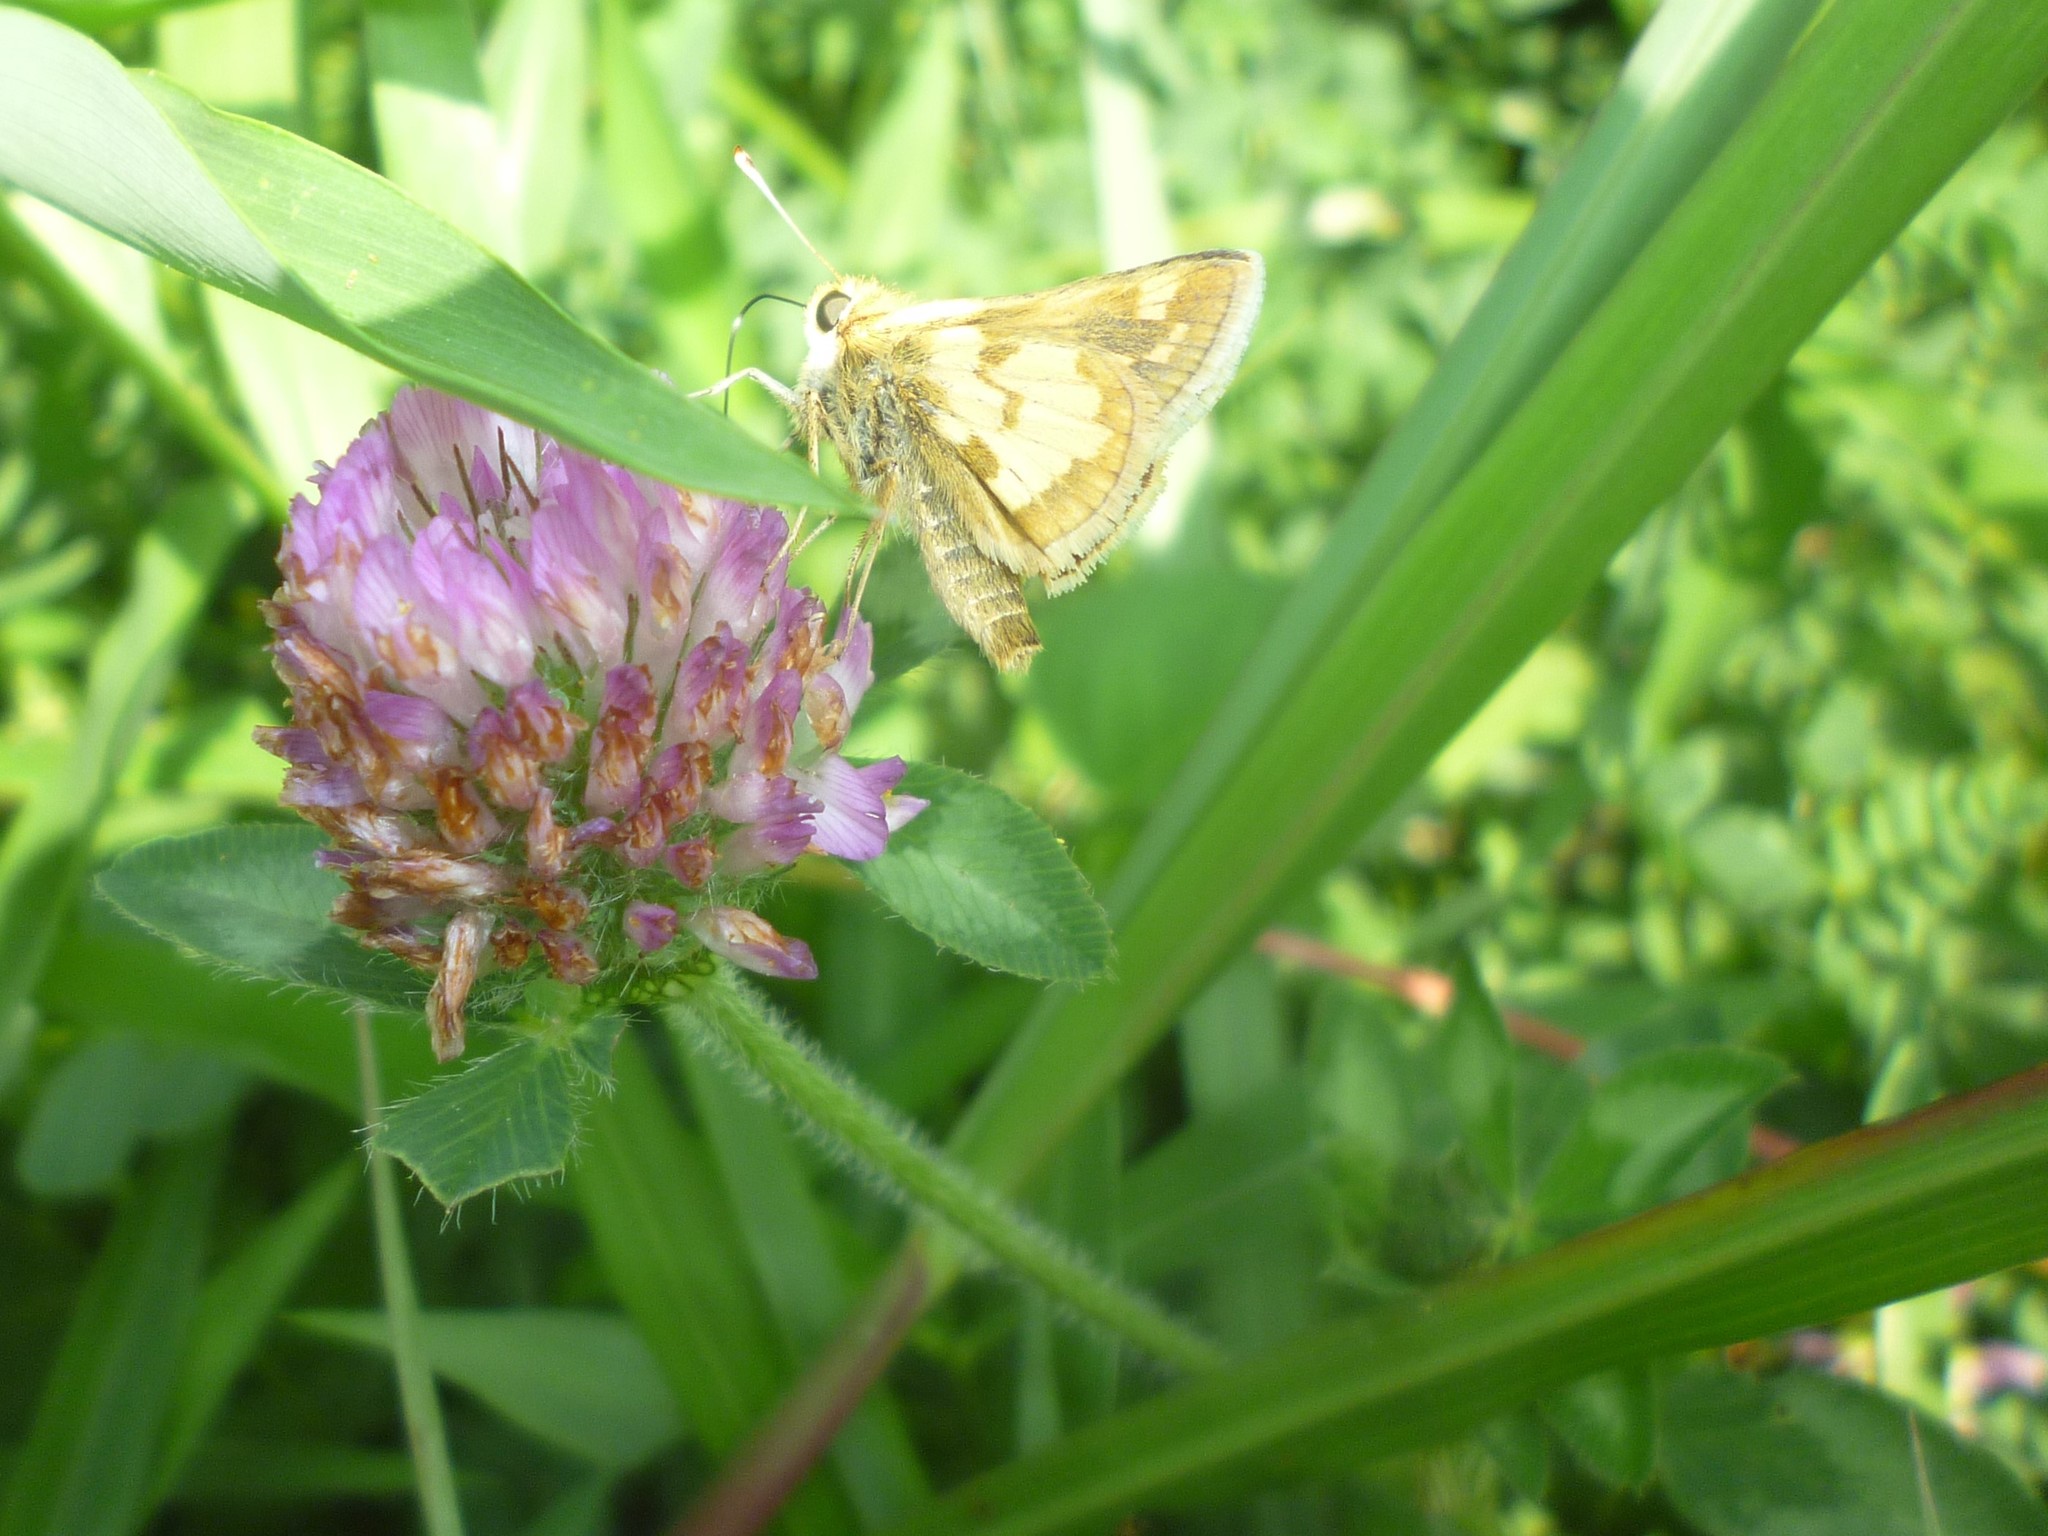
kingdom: Plantae
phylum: Tracheophyta
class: Magnoliopsida
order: Fabales
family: Fabaceae
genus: Trifolium
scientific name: Trifolium pratense
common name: Red clover
